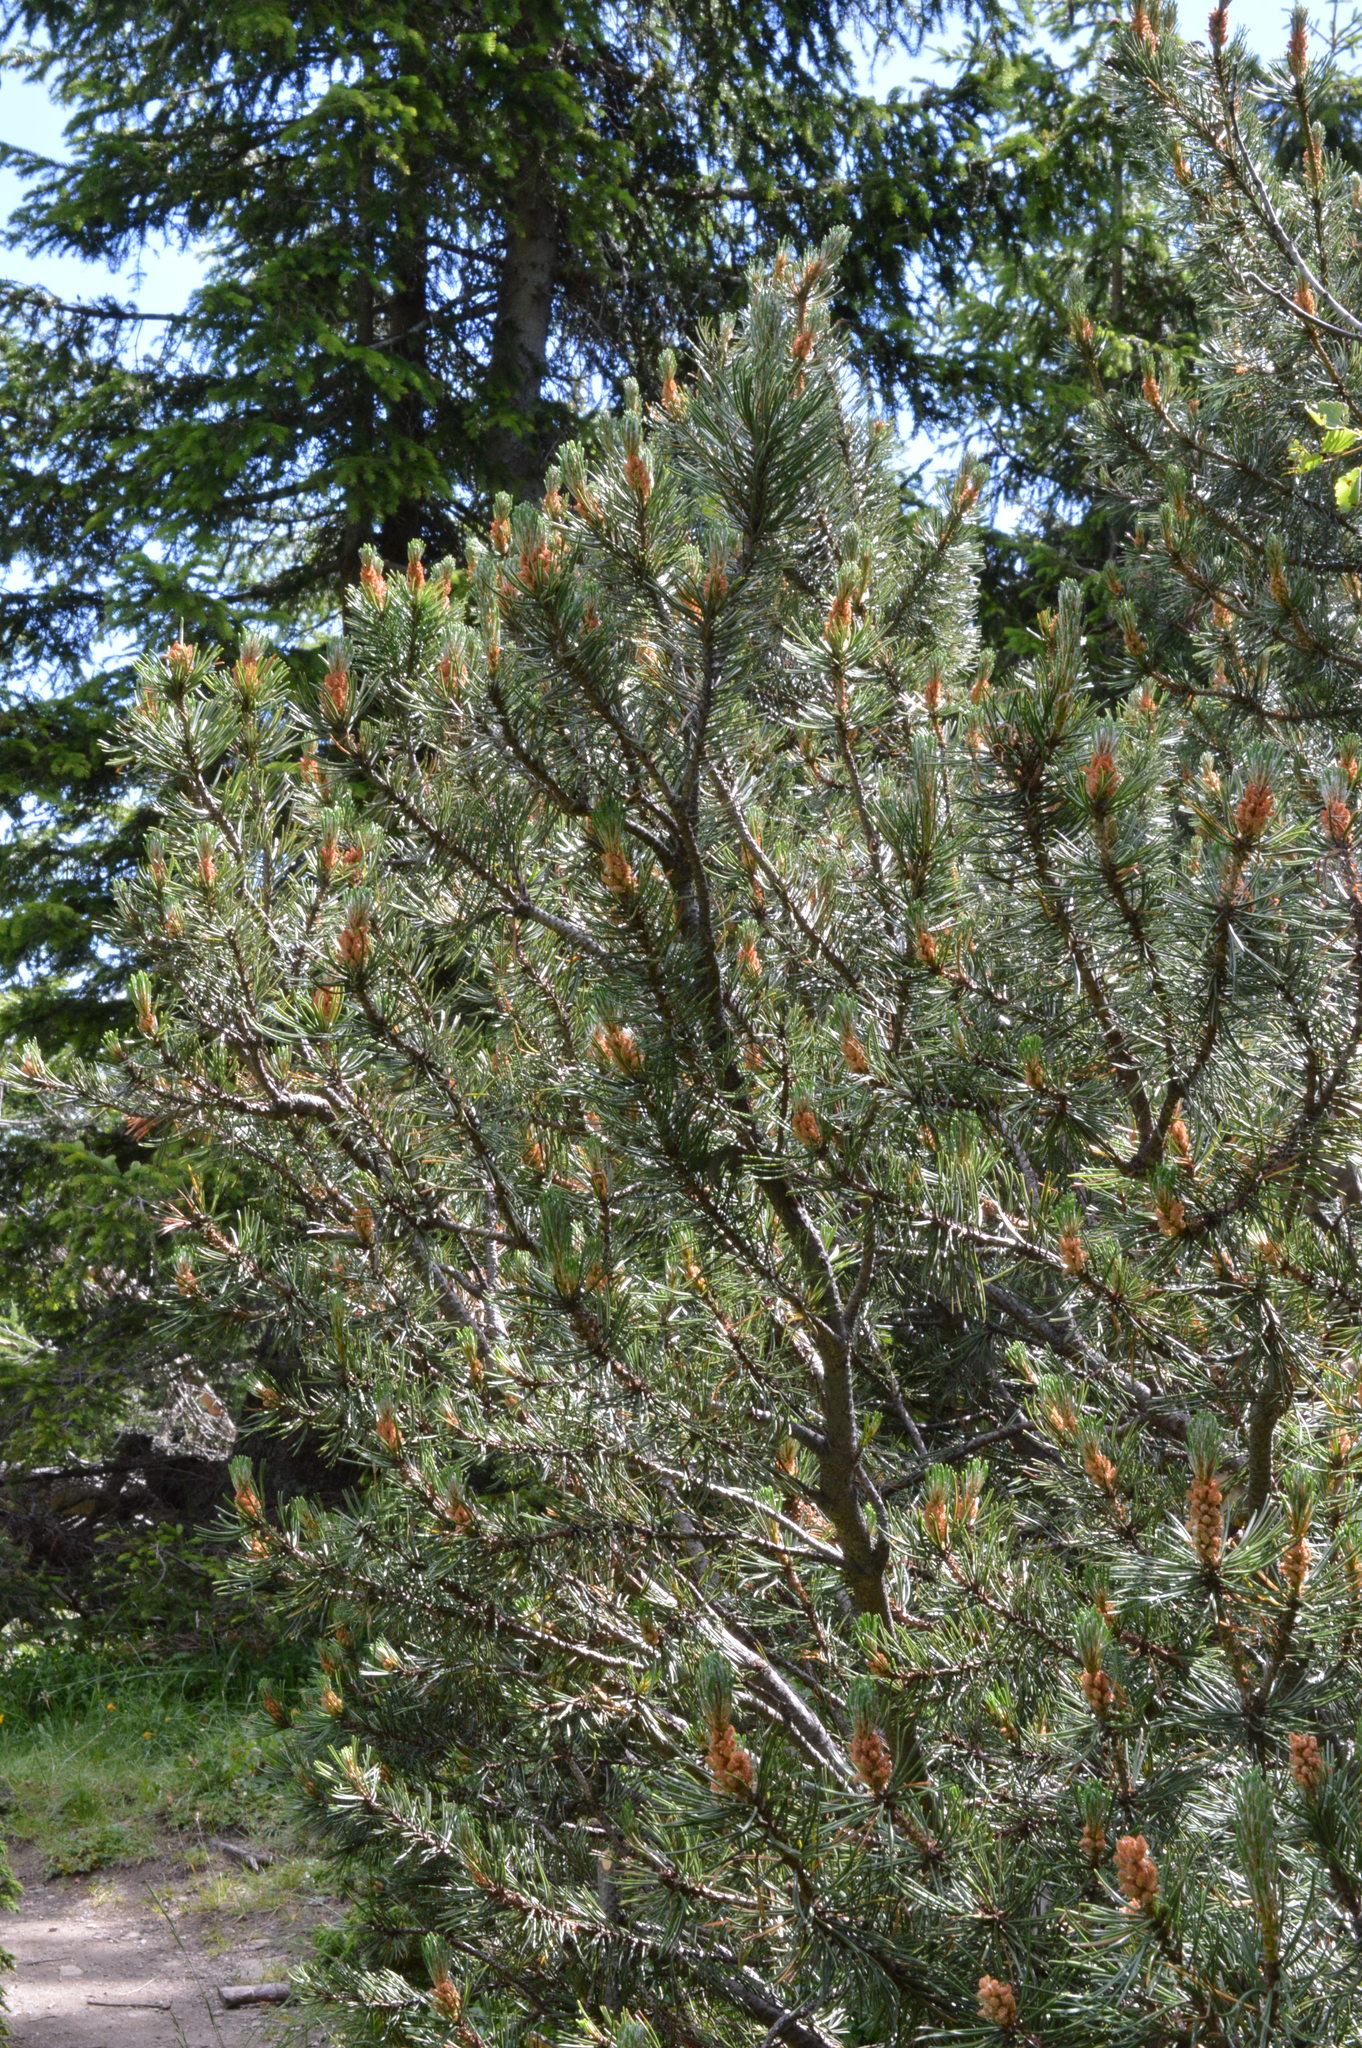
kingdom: Plantae
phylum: Tracheophyta
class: Pinopsida
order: Pinales
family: Pinaceae
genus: Pinus
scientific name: Pinus mugo
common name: Mugo pine
